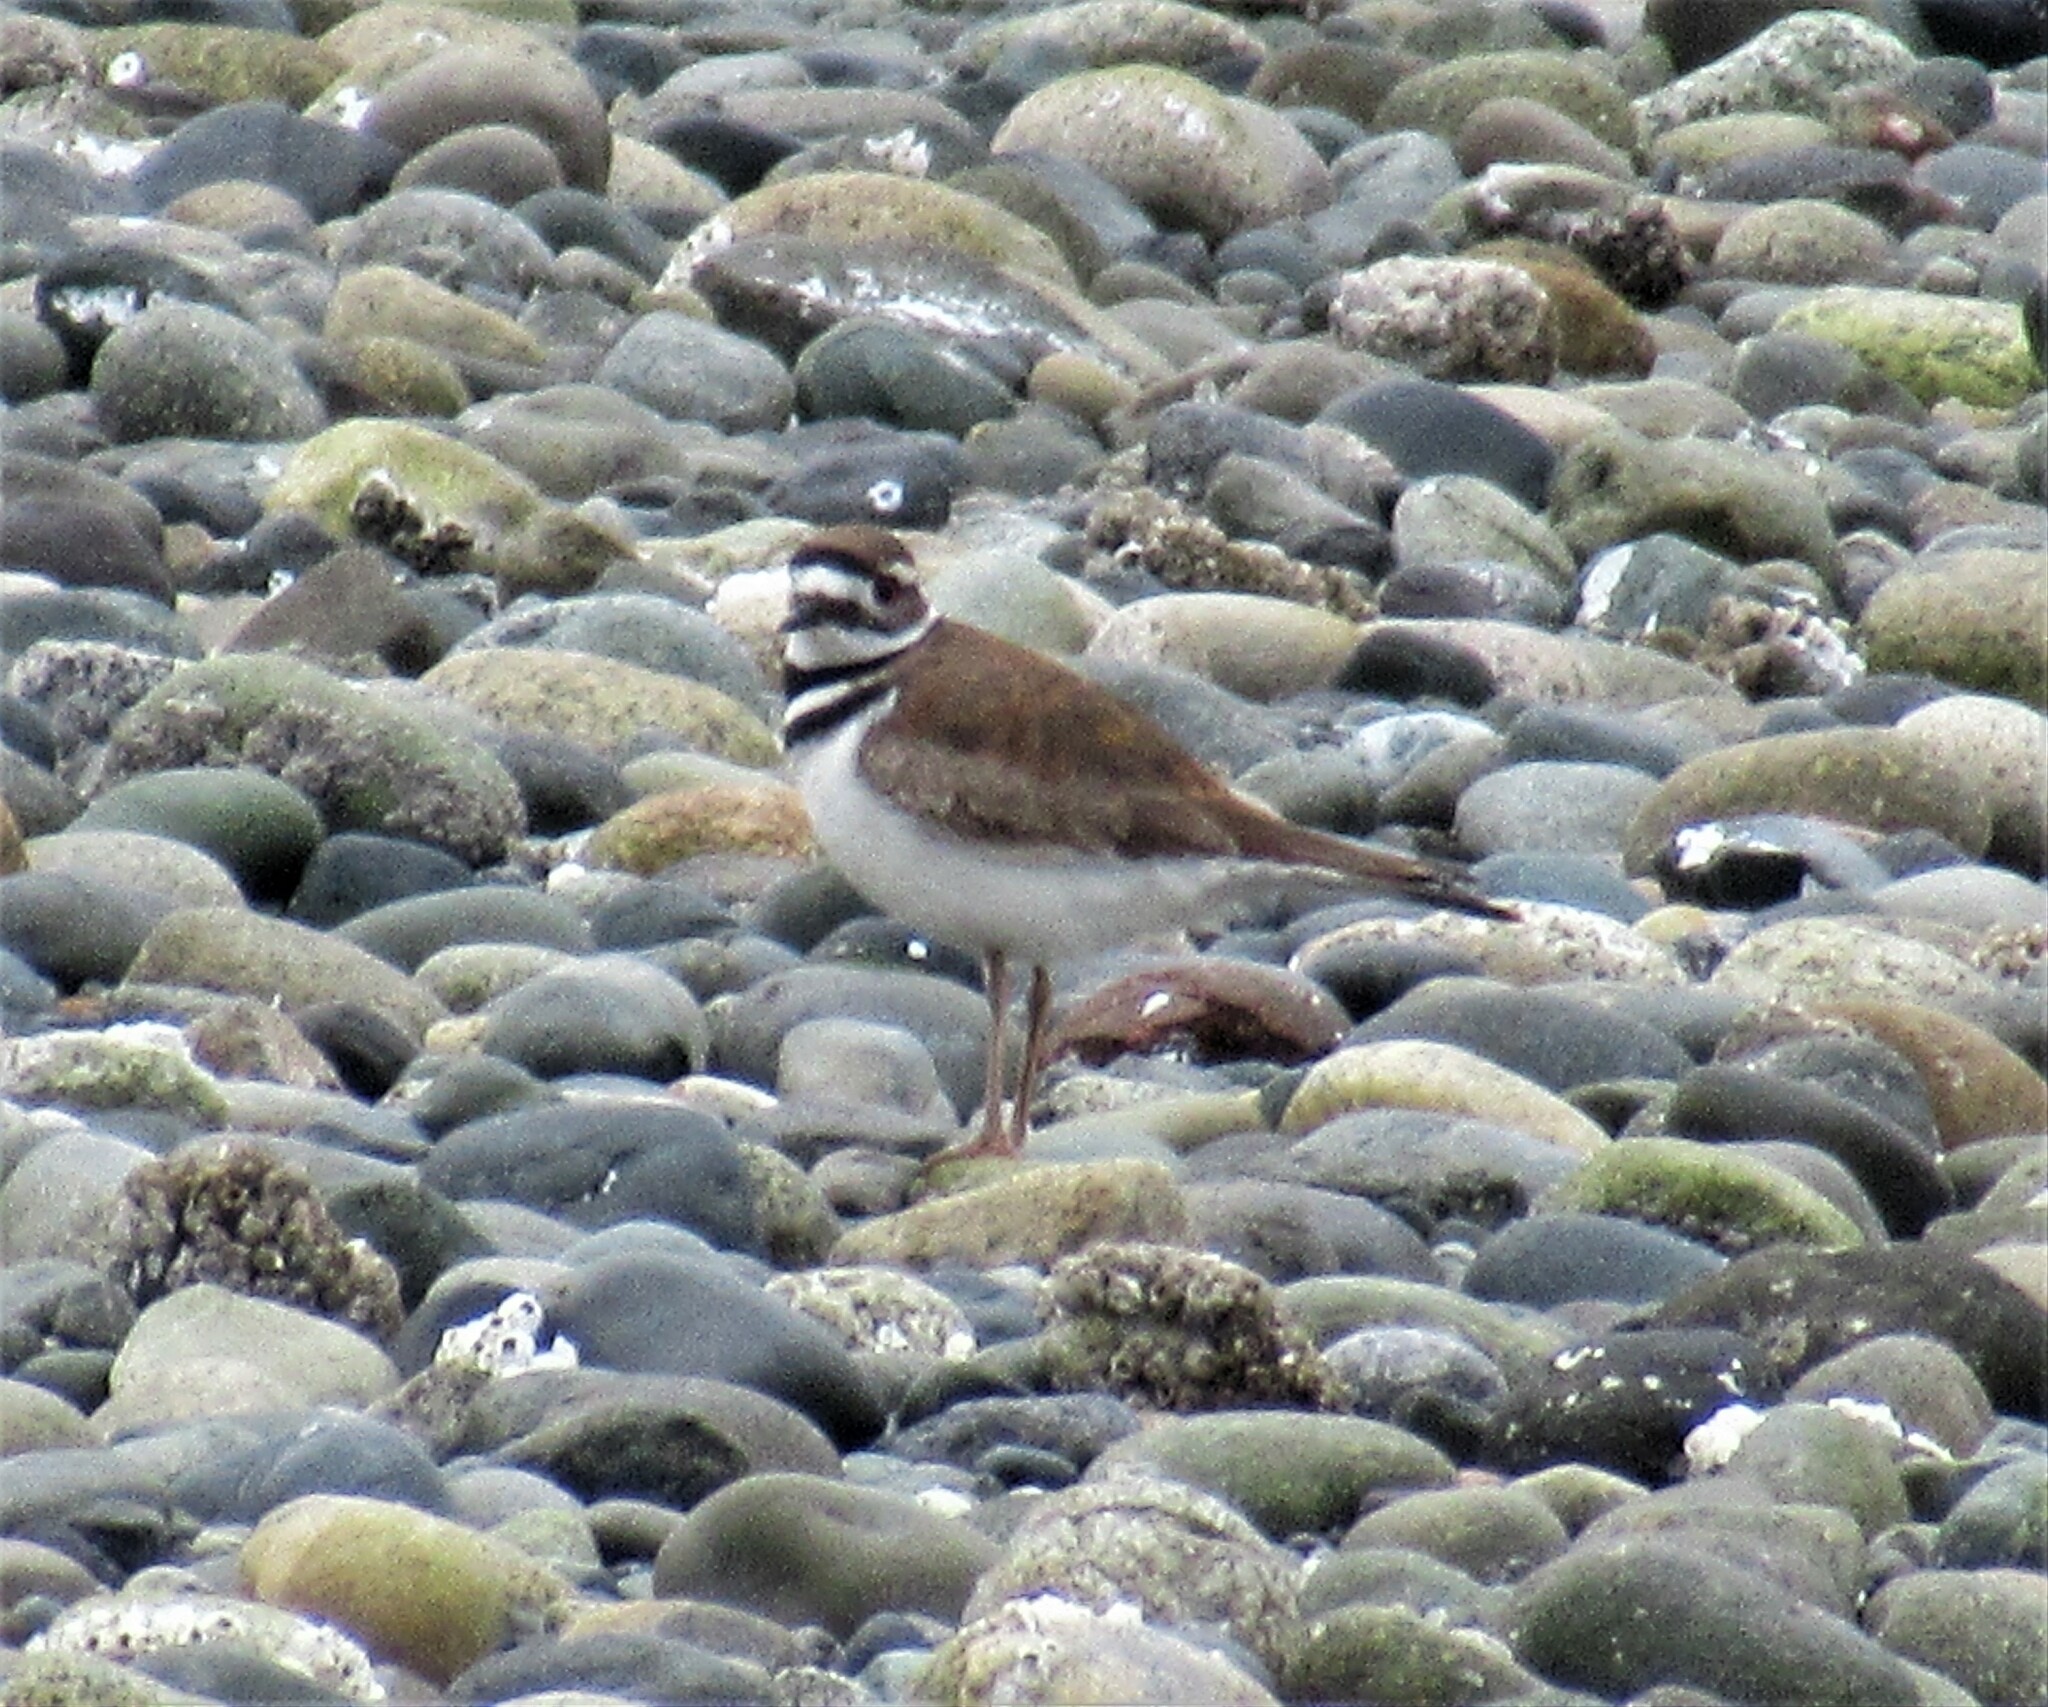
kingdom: Animalia
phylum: Chordata
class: Aves
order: Charadriiformes
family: Charadriidae
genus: Charadrius
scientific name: Charadrius vociferus
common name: Killdeer
